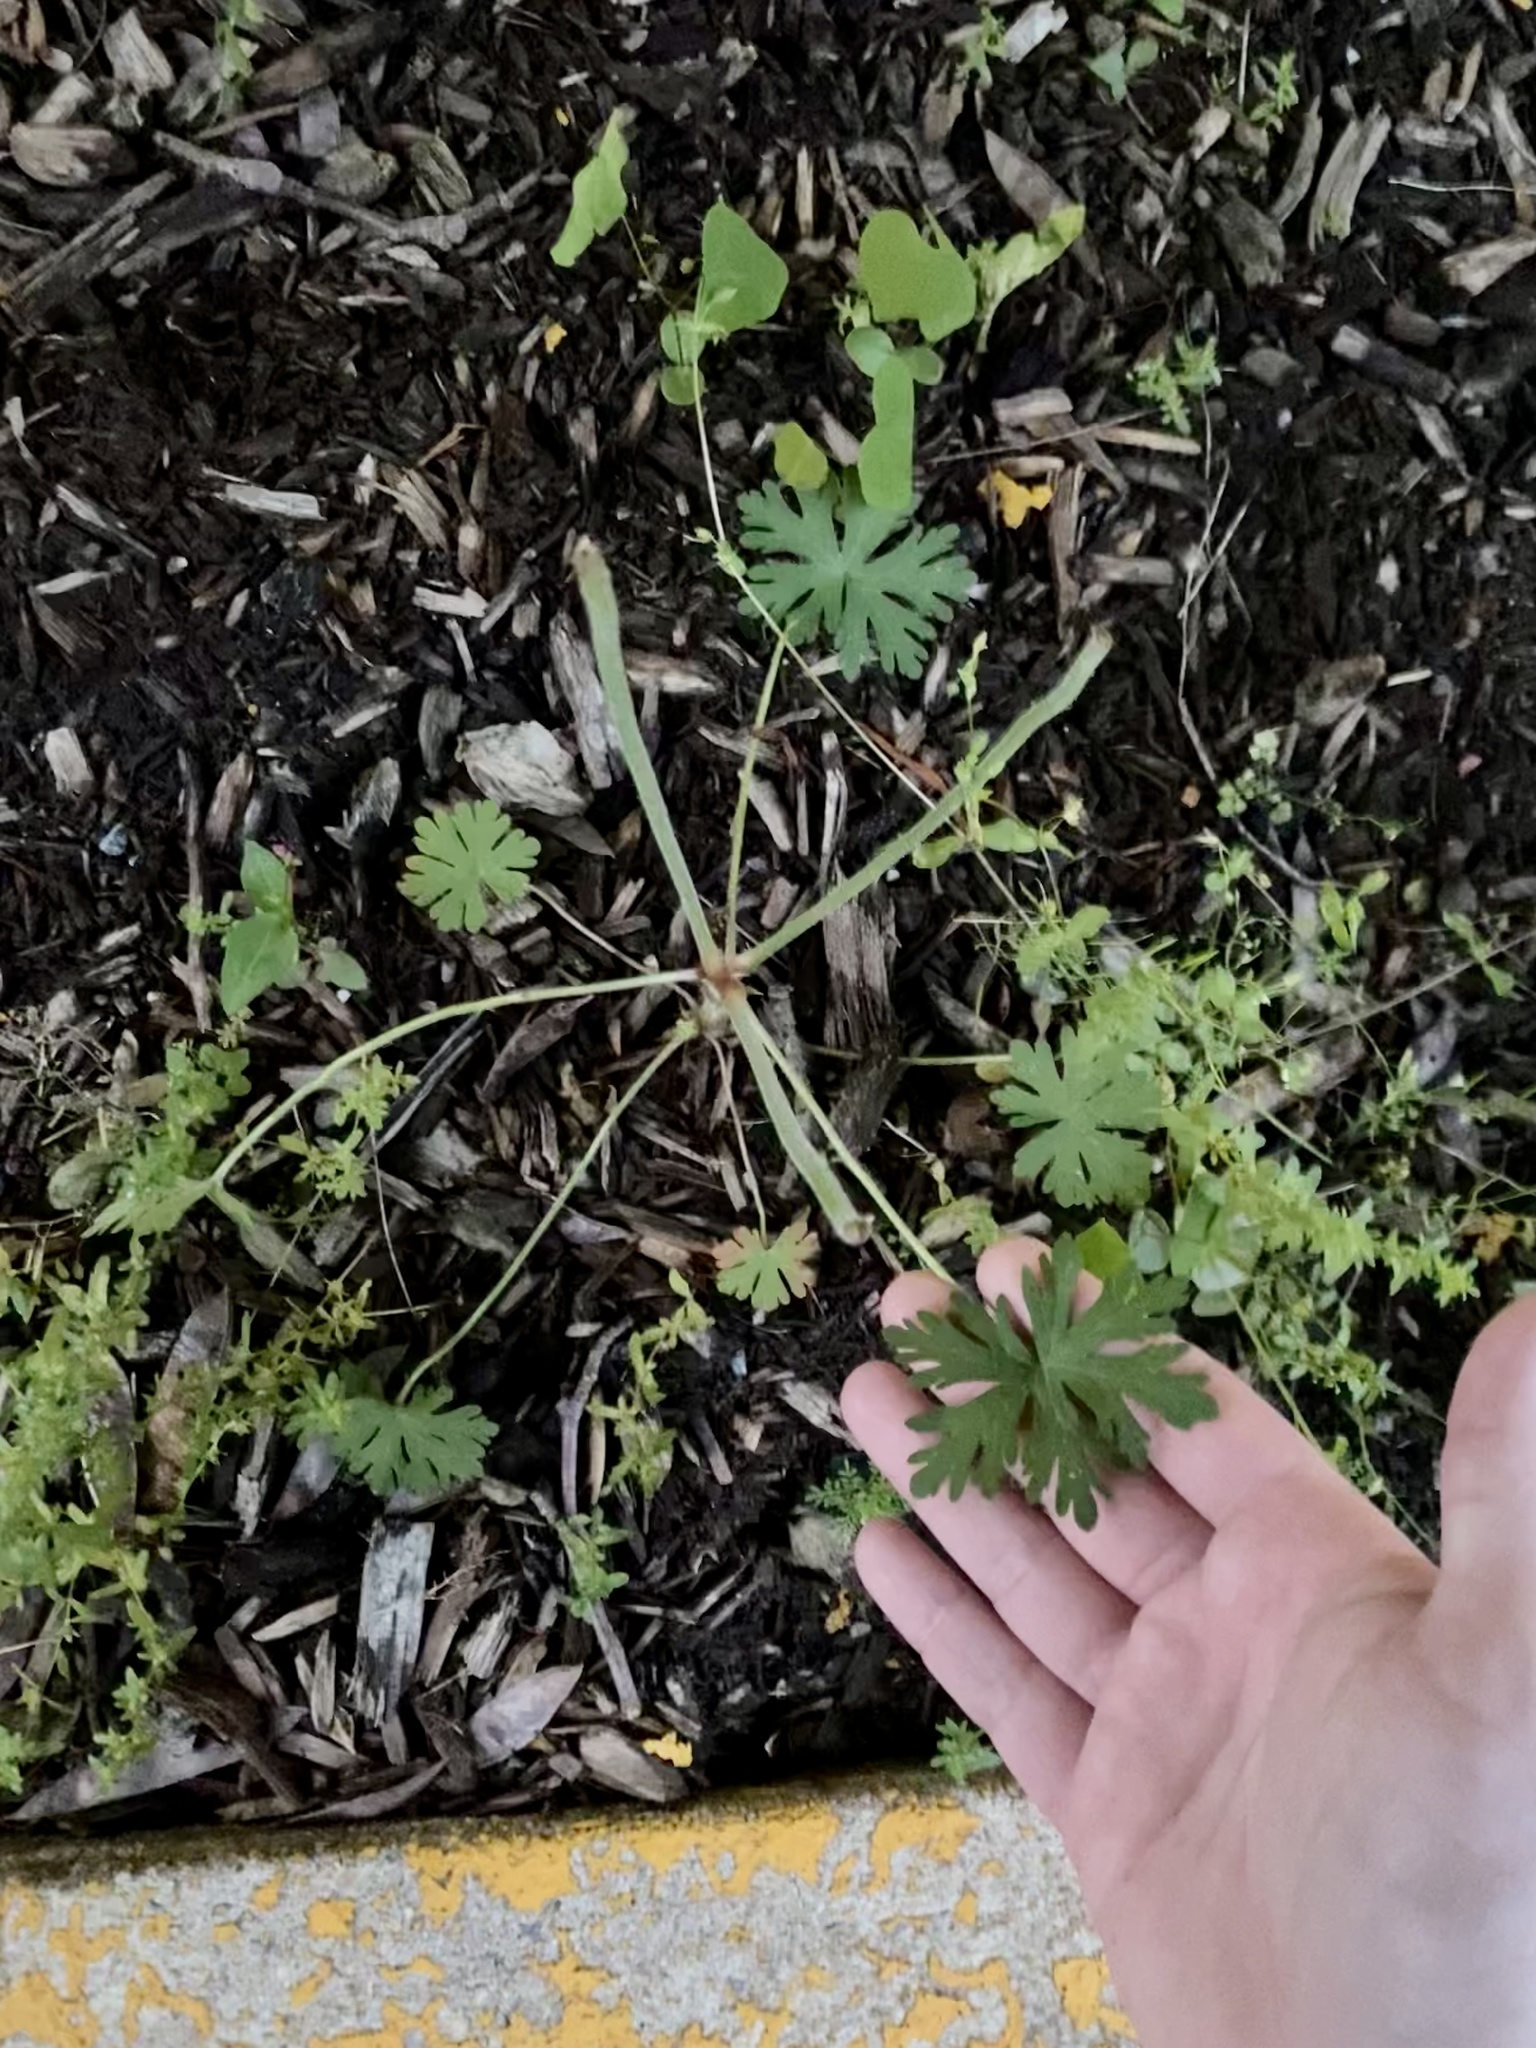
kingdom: Plantae
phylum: Tracheophyta
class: Magnoliopsida
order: Geraniales
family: Geraniaceae
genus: Geranium
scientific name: Geranium carolinianum
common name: Carolina crane's-bill
